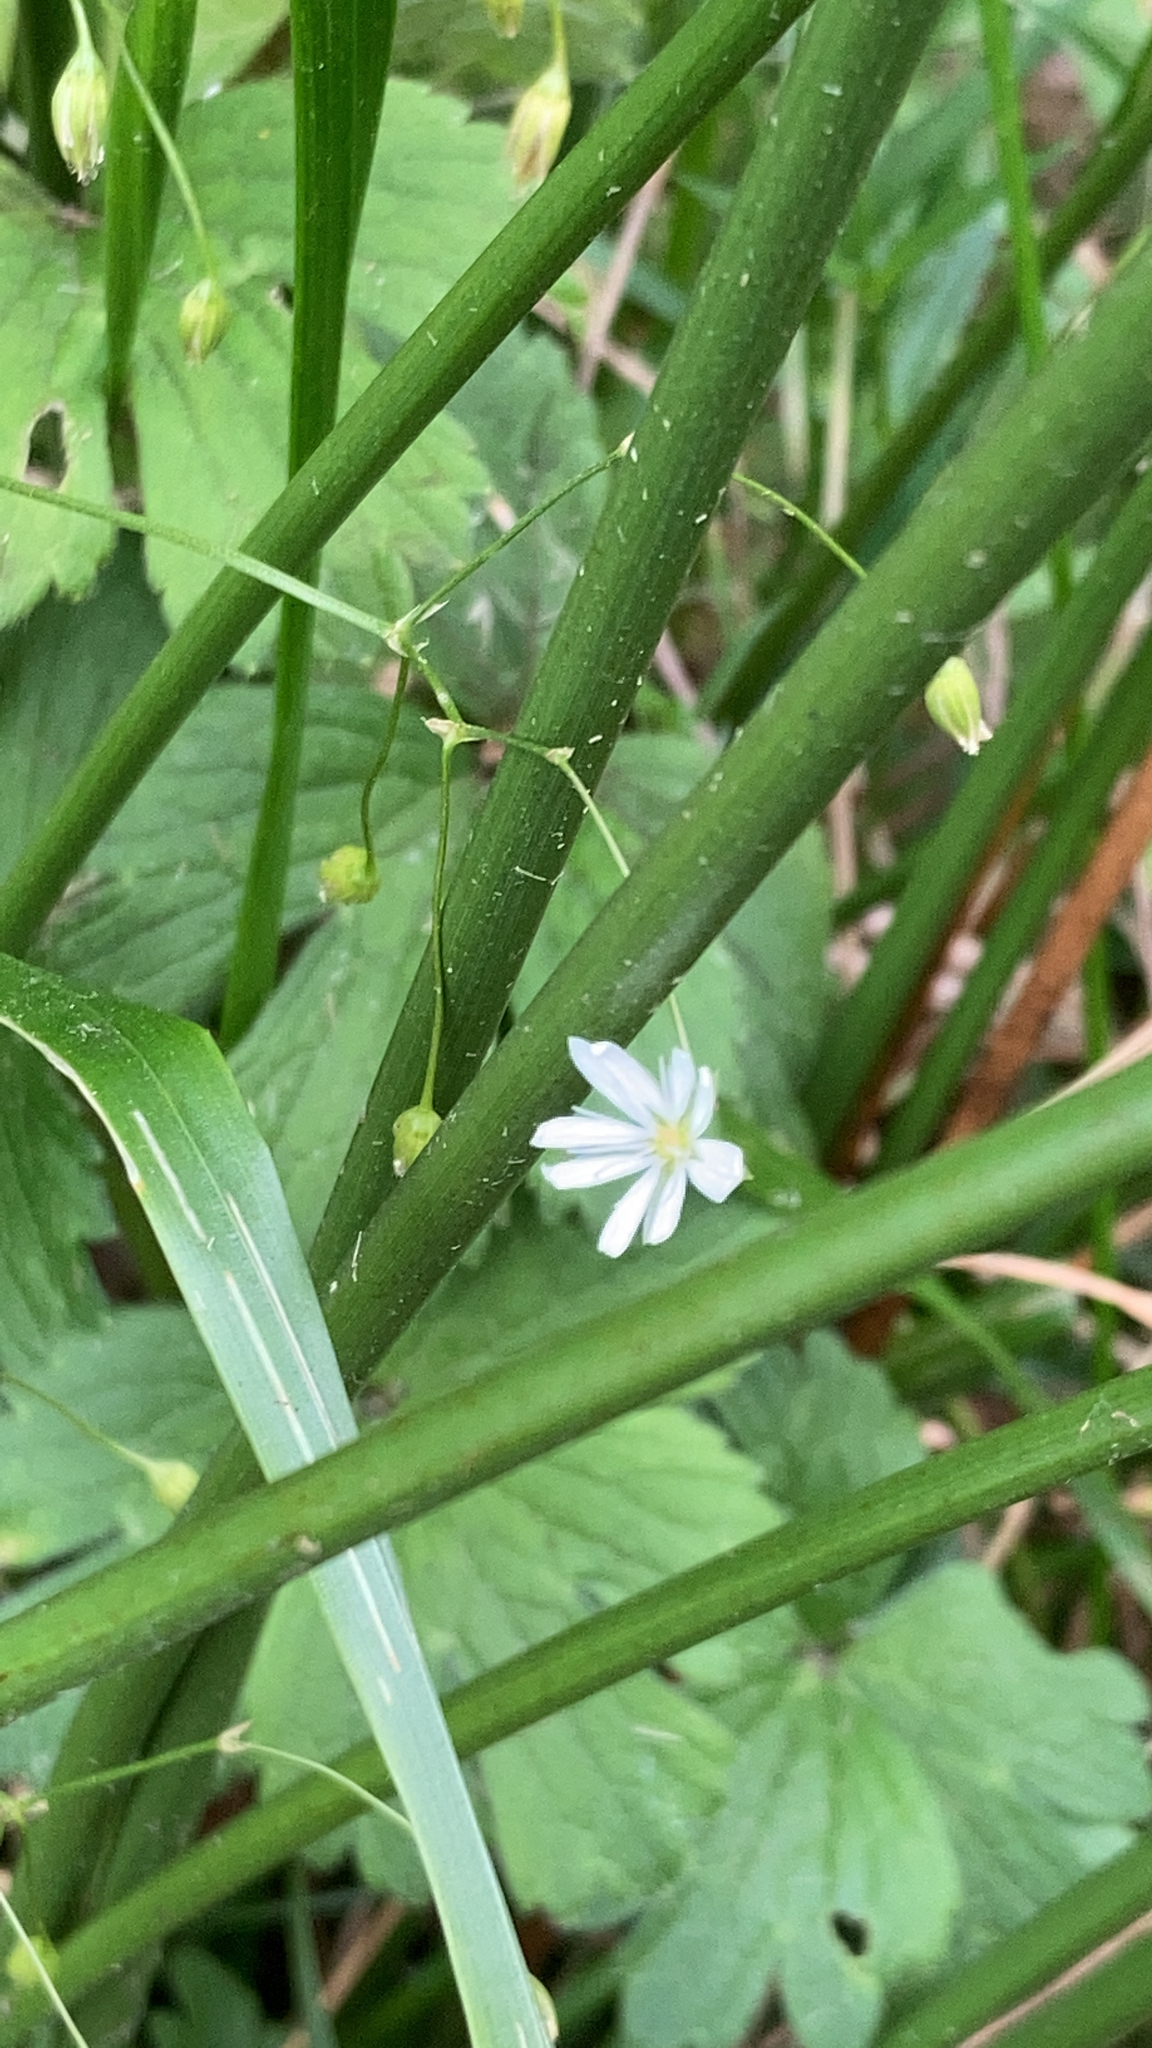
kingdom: Plantae
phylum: Tracheophyta
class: Magnoliopsida
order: Caryophyllales
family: Caryophyllaceae
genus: Stellaria
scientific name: Stellaria graminea
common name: Grass-like starwort
